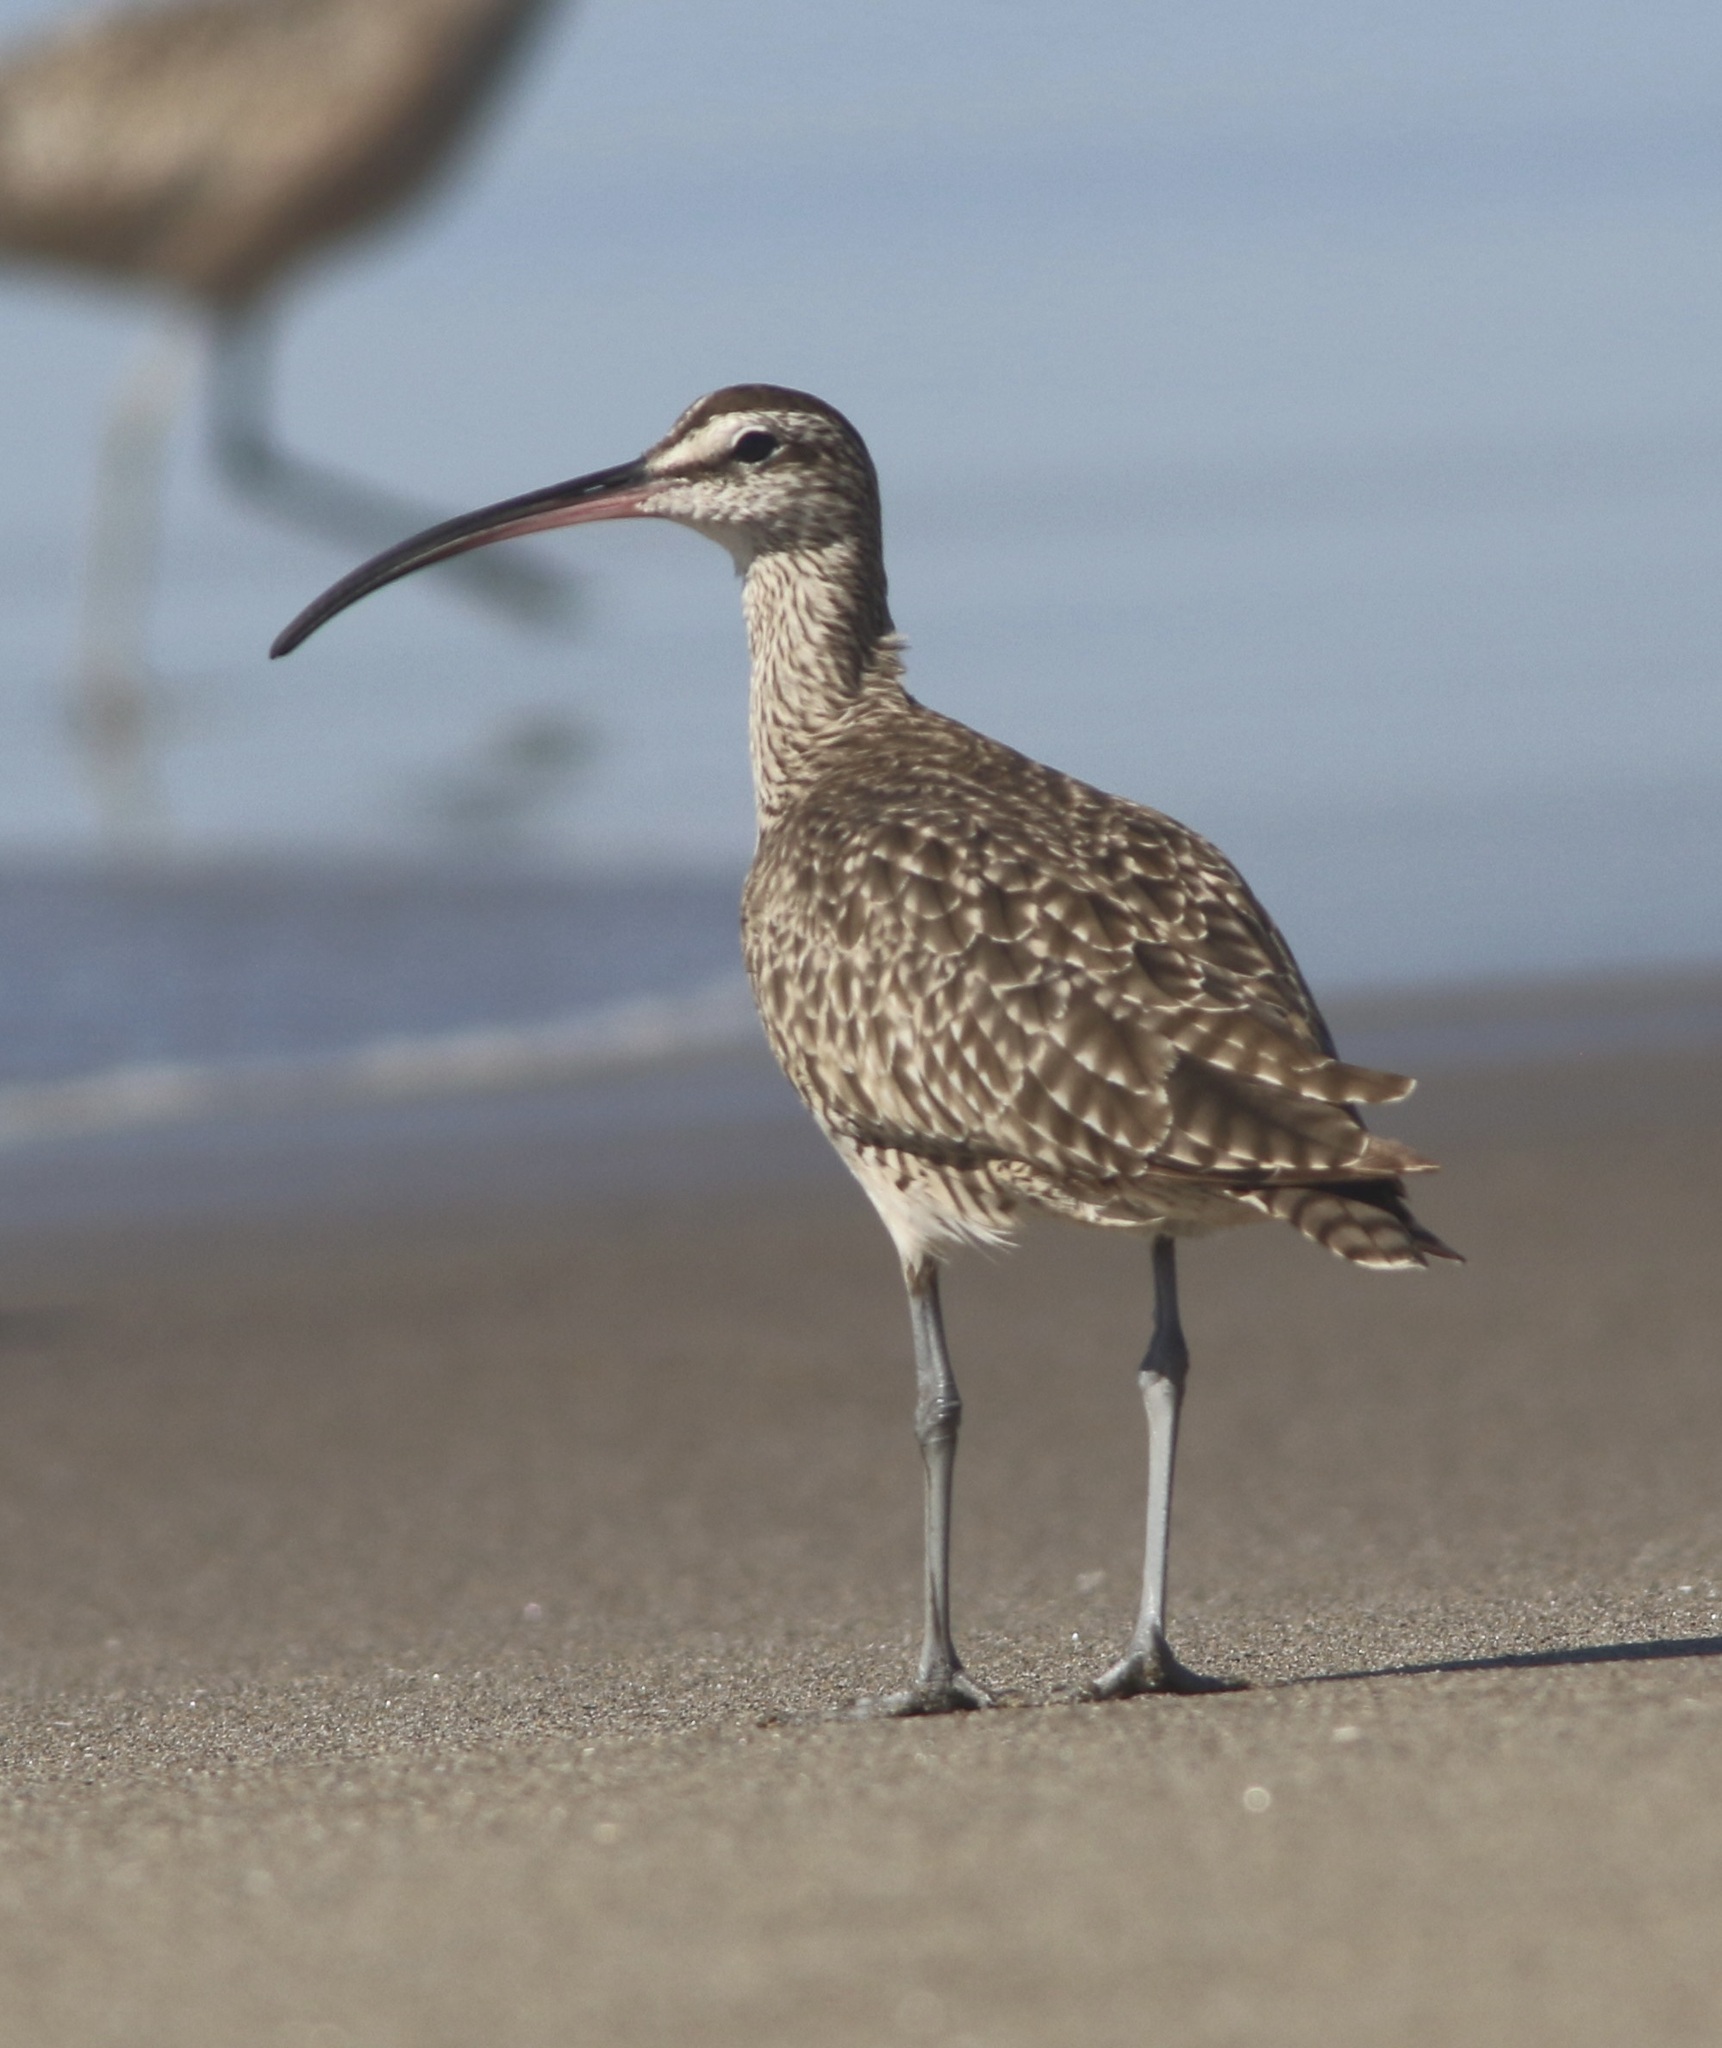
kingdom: Animalia
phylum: Chordata
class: Aves
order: Charadriiformes
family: Scolopacidae
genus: Numenius
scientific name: Numenius phaeopus
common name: Whimbrel
